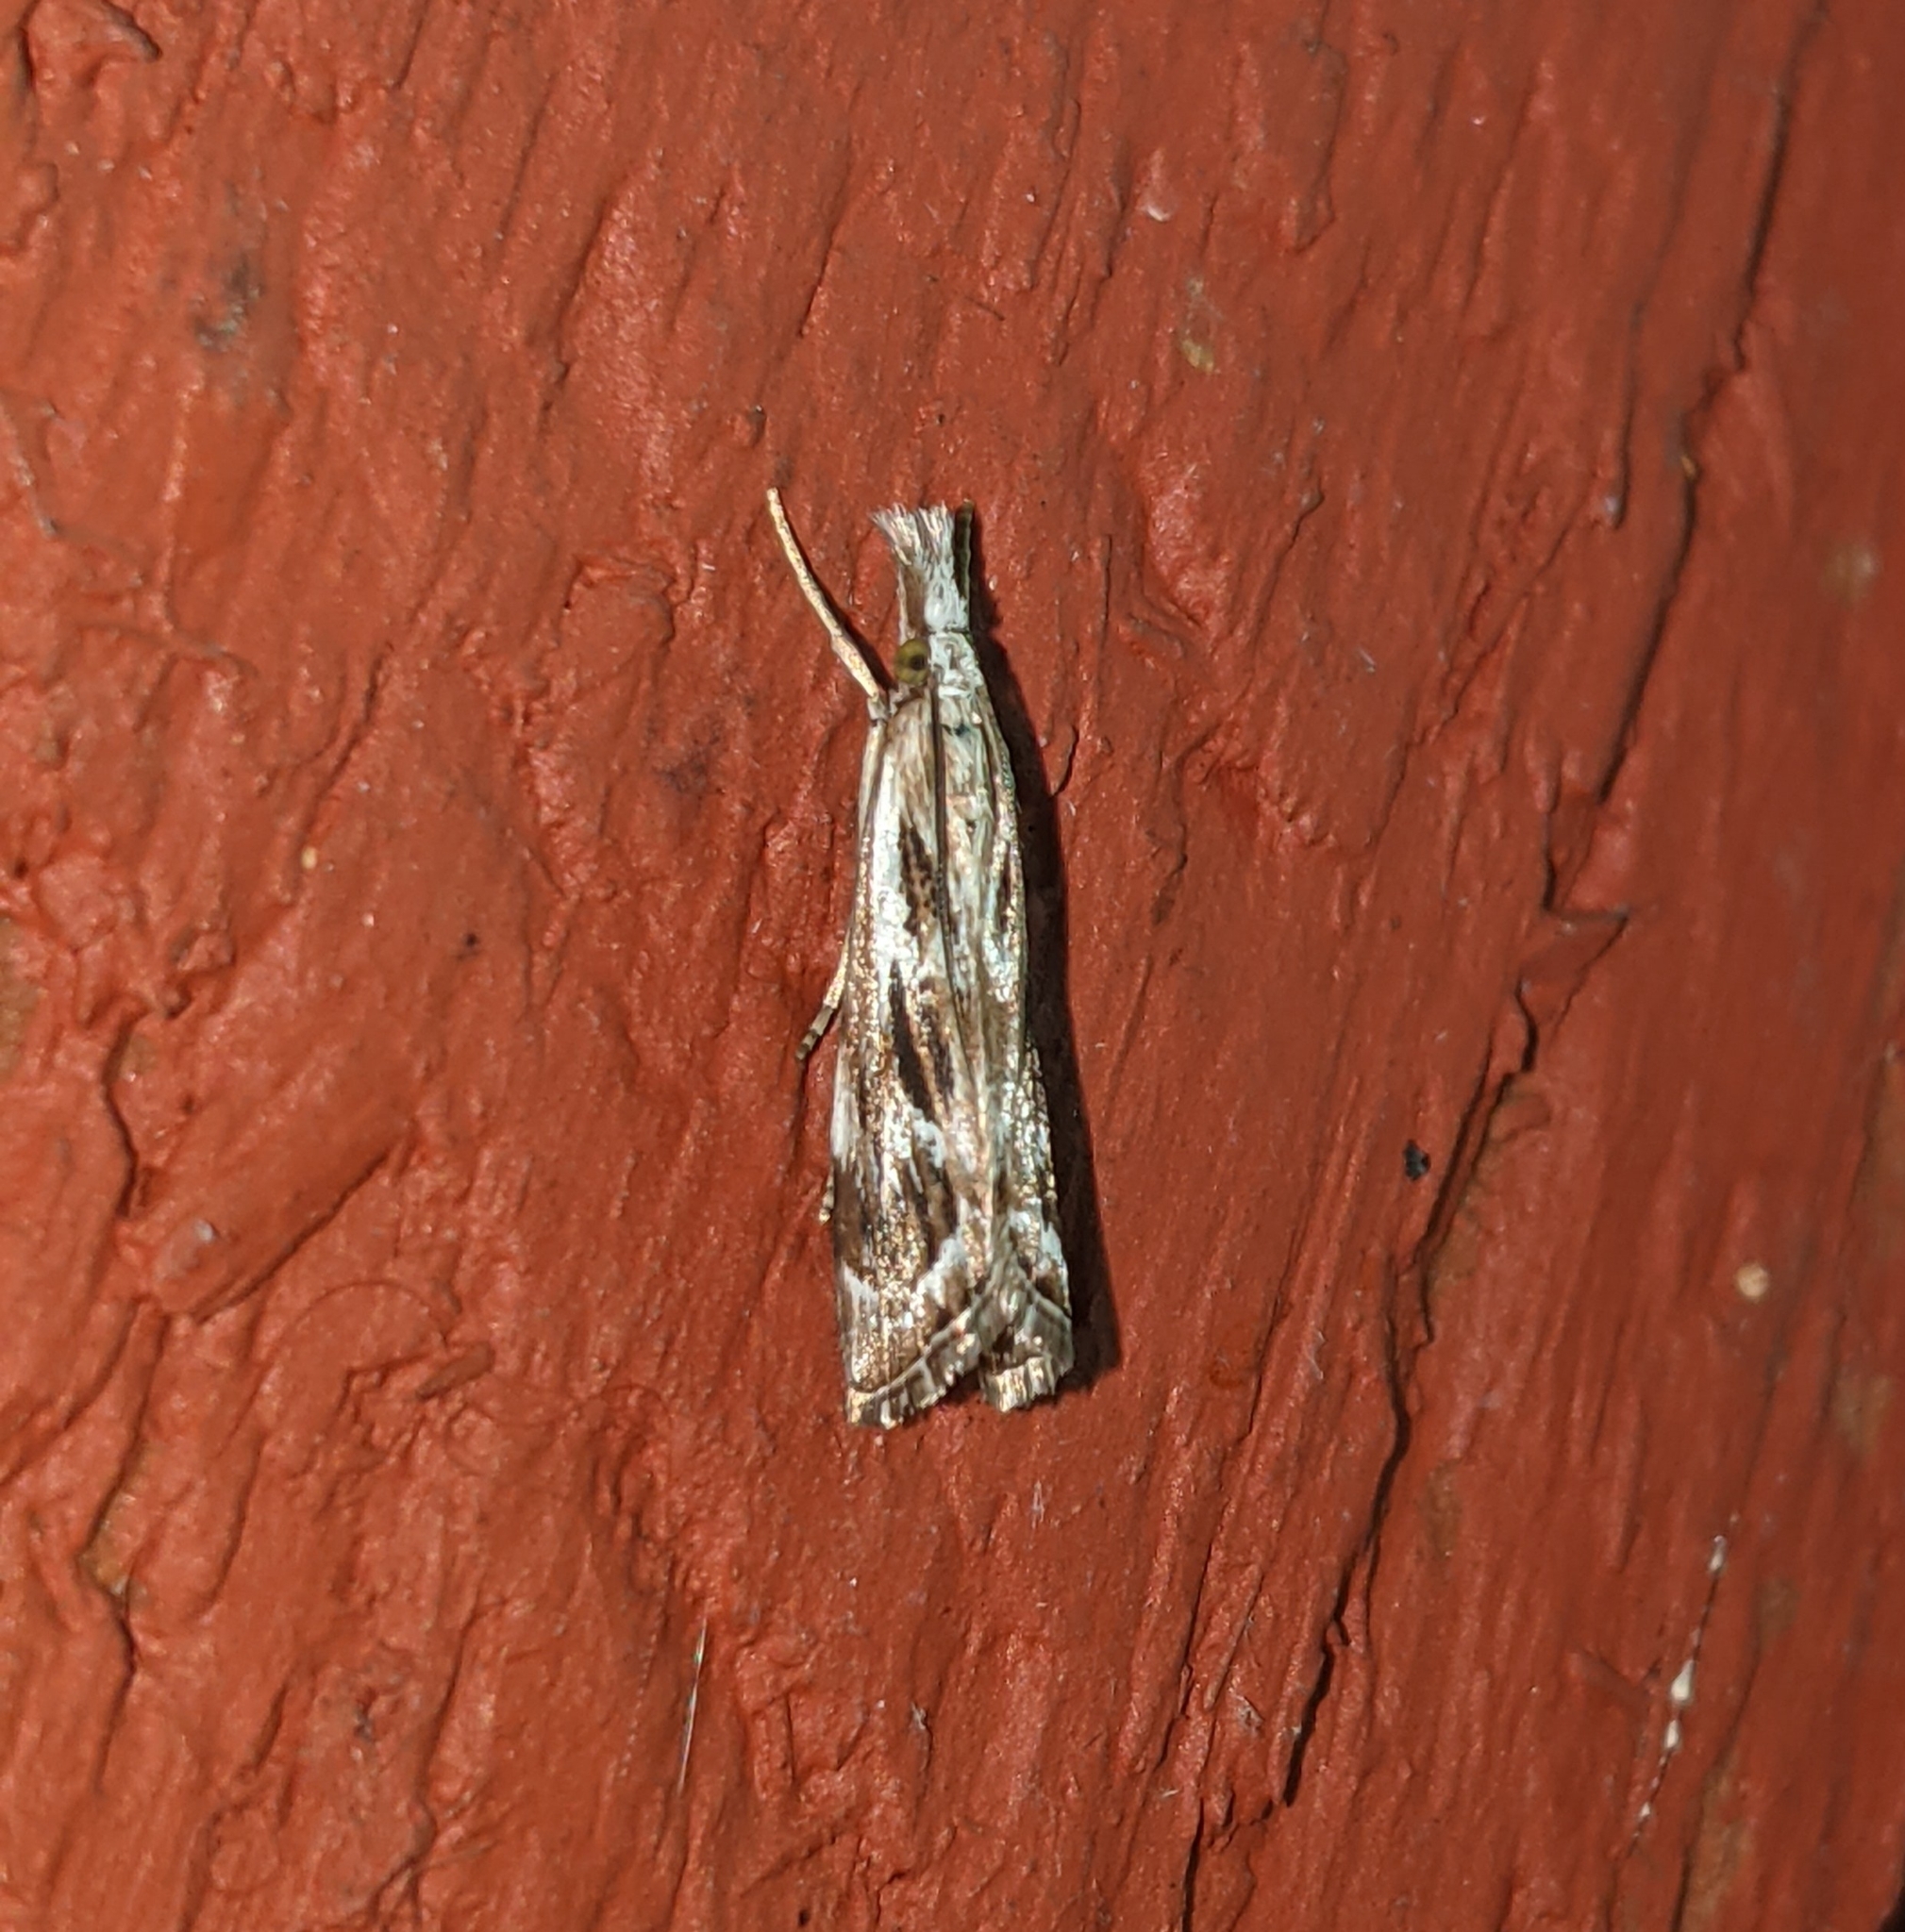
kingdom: Animalia
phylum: Arthropoda
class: Insecta
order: Lepidoptera
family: Crambidae
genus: Catoptria
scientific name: Catoptria oregonicus
